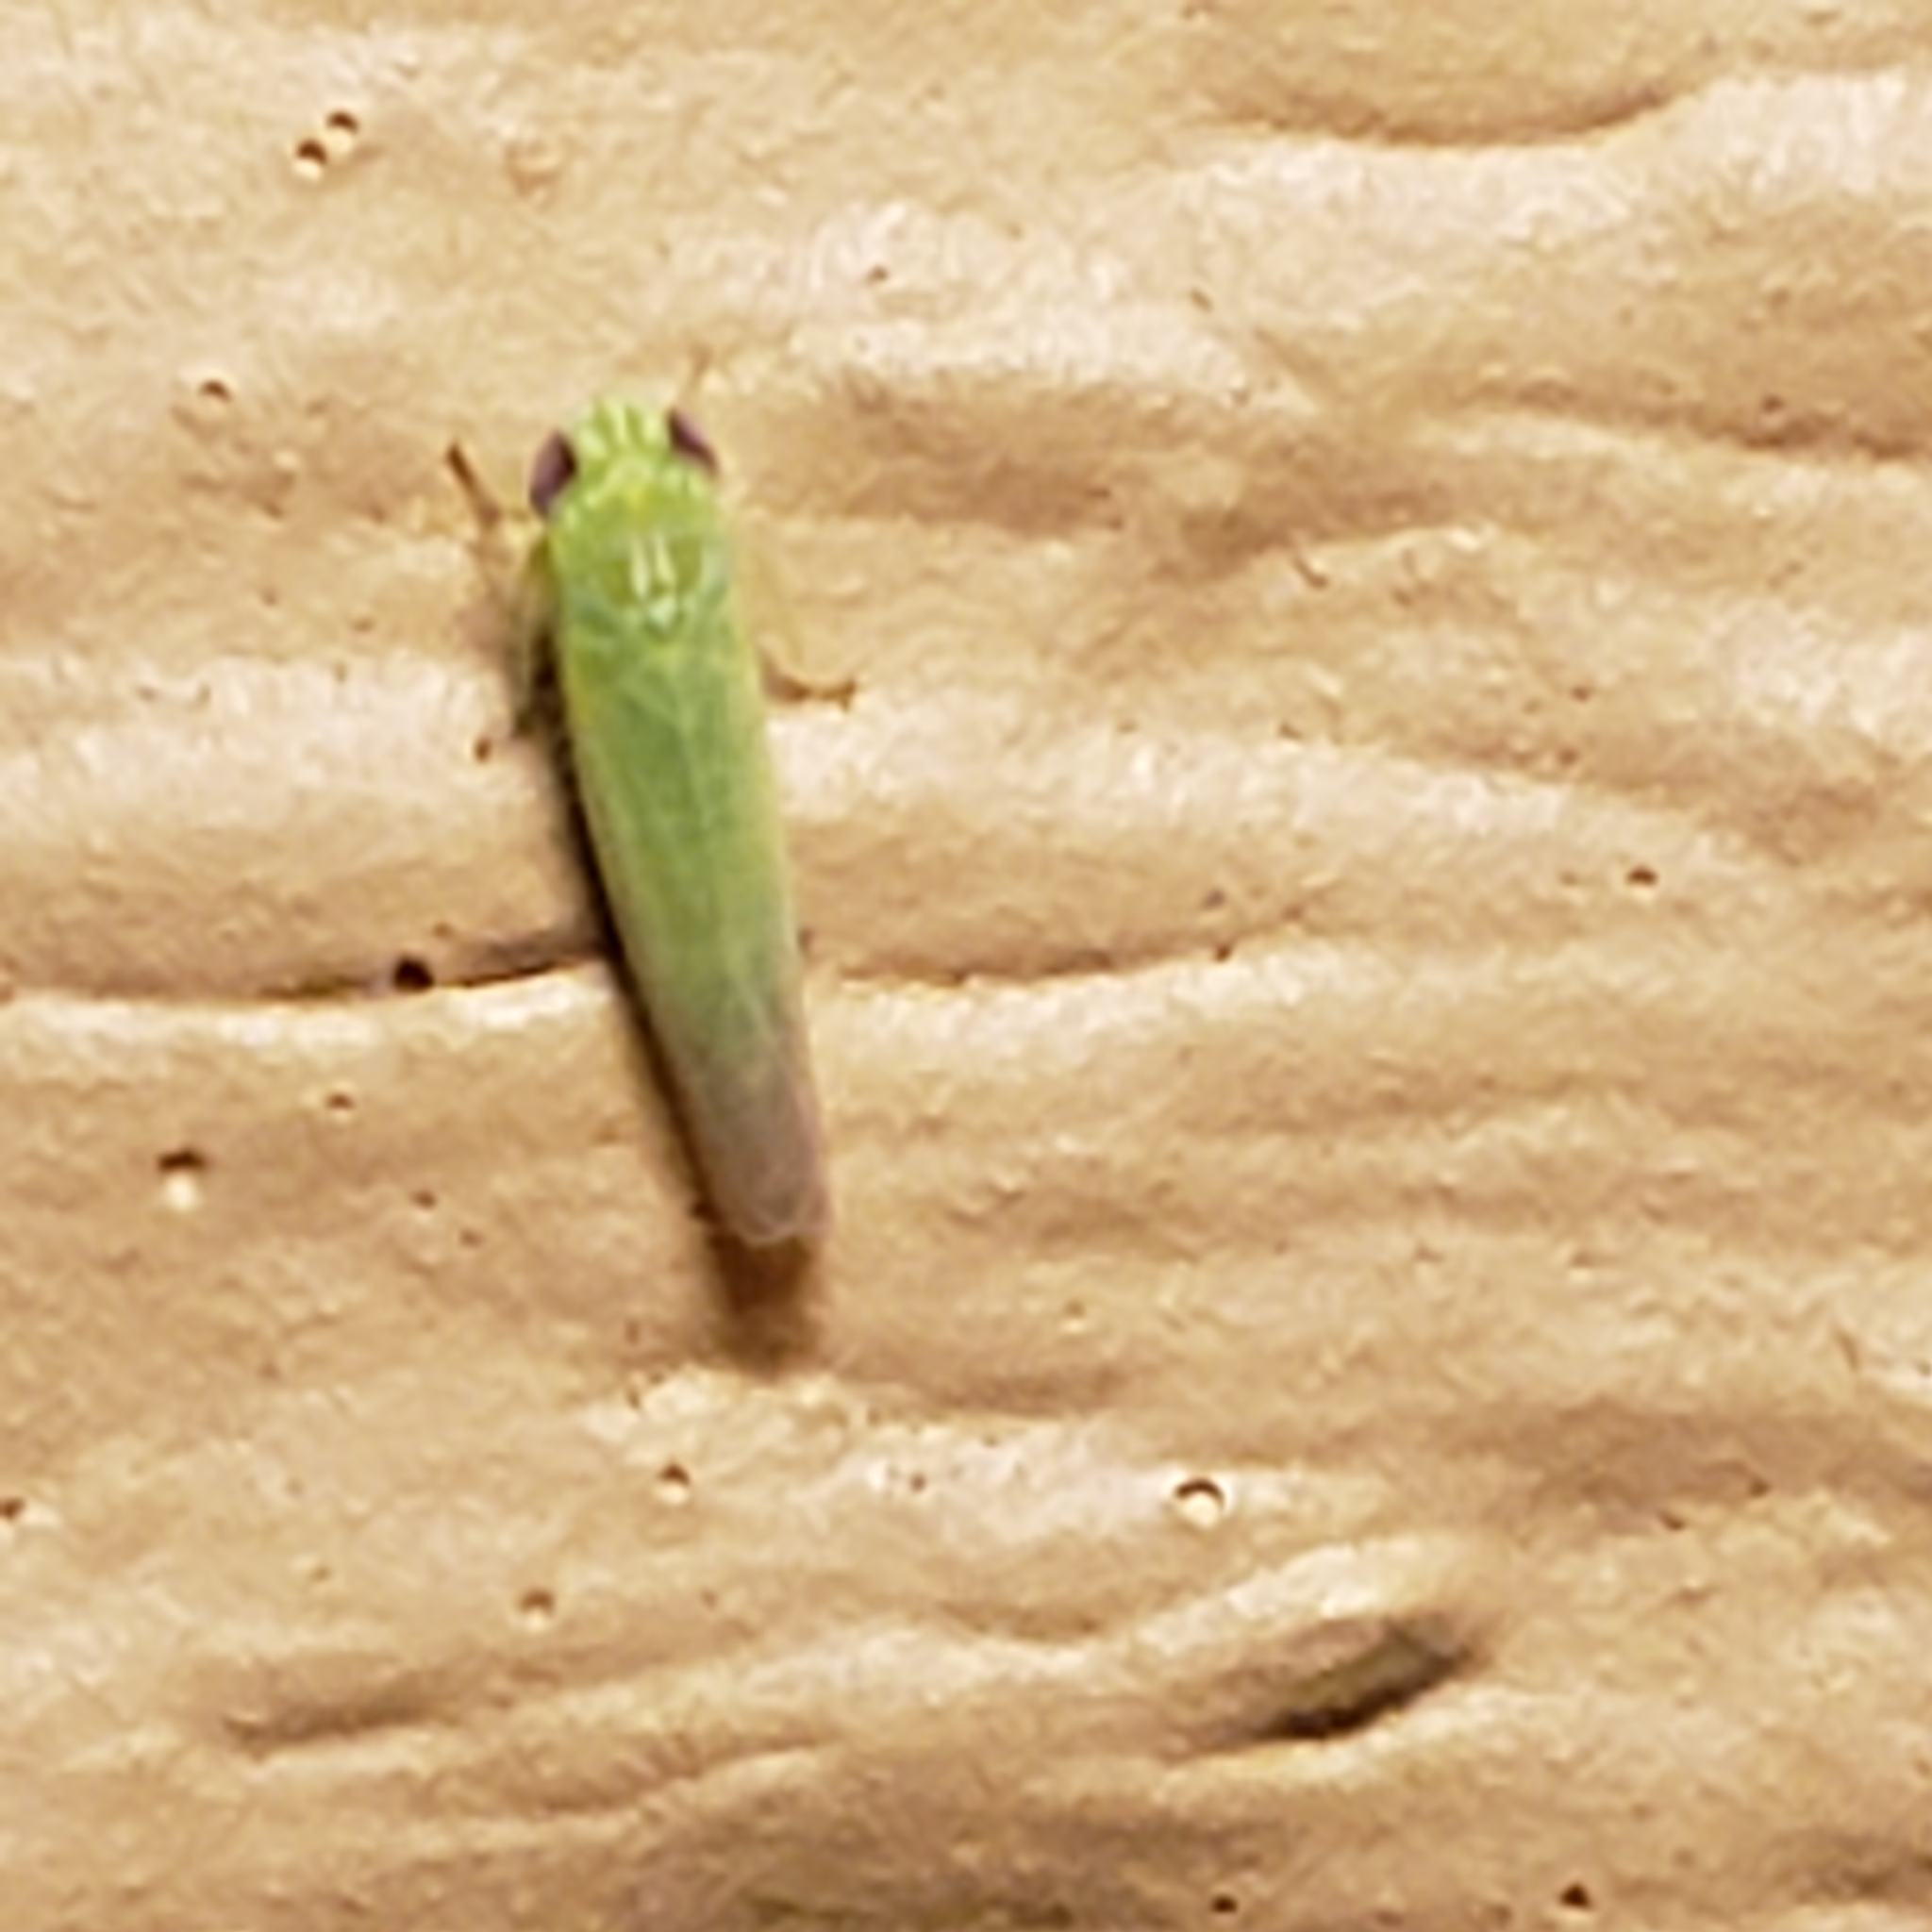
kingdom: Animalia
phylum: Arthropoda
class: Insecta
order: Hemiptera
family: Cicadellidae
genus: Empoasca
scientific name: Empoasca fabae
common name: Potato leafhopper
